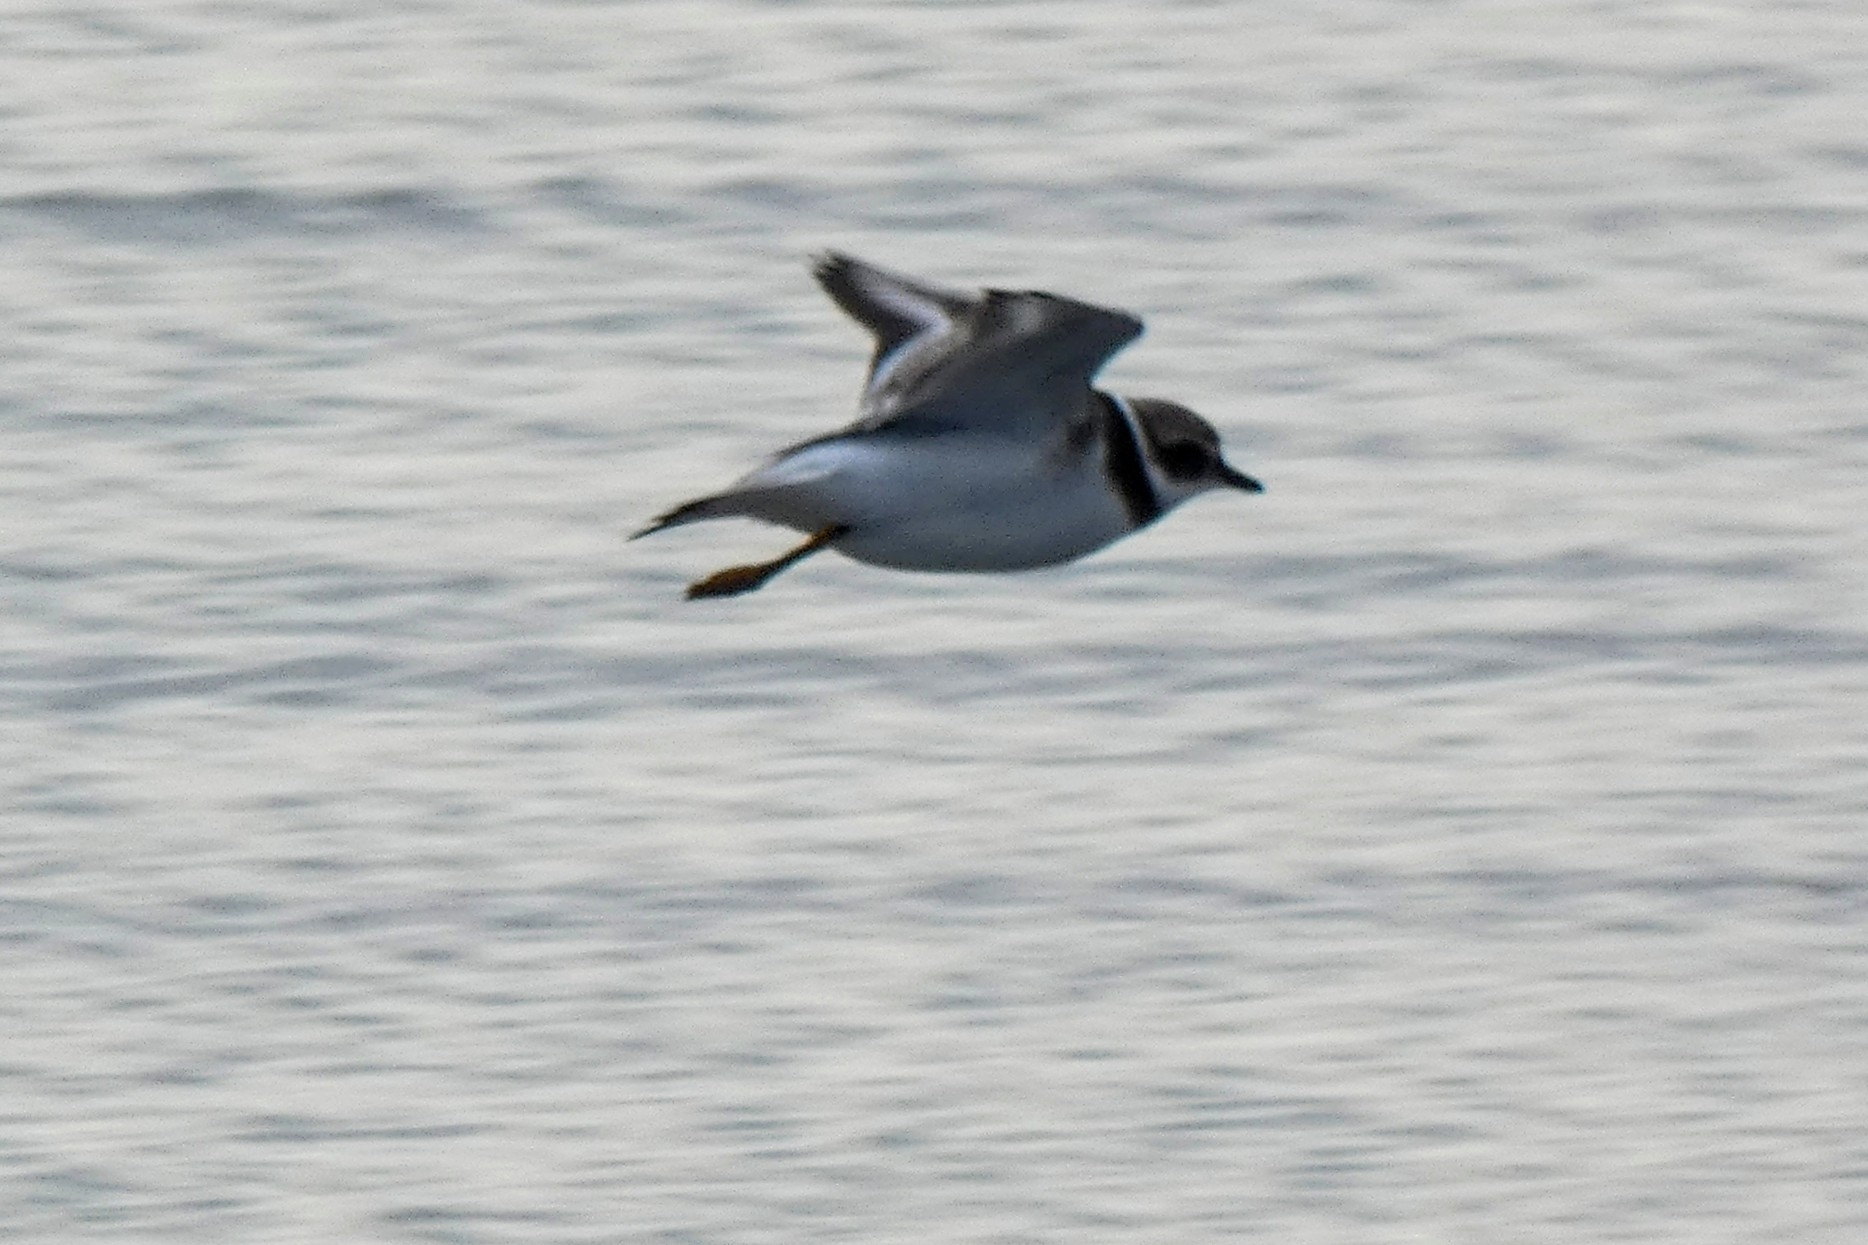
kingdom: Animalia
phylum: Chordata
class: Aves
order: Charadriiformes
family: Charadriidae
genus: Charadrius
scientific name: Charadrius hiaticula
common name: Common ringed plover
